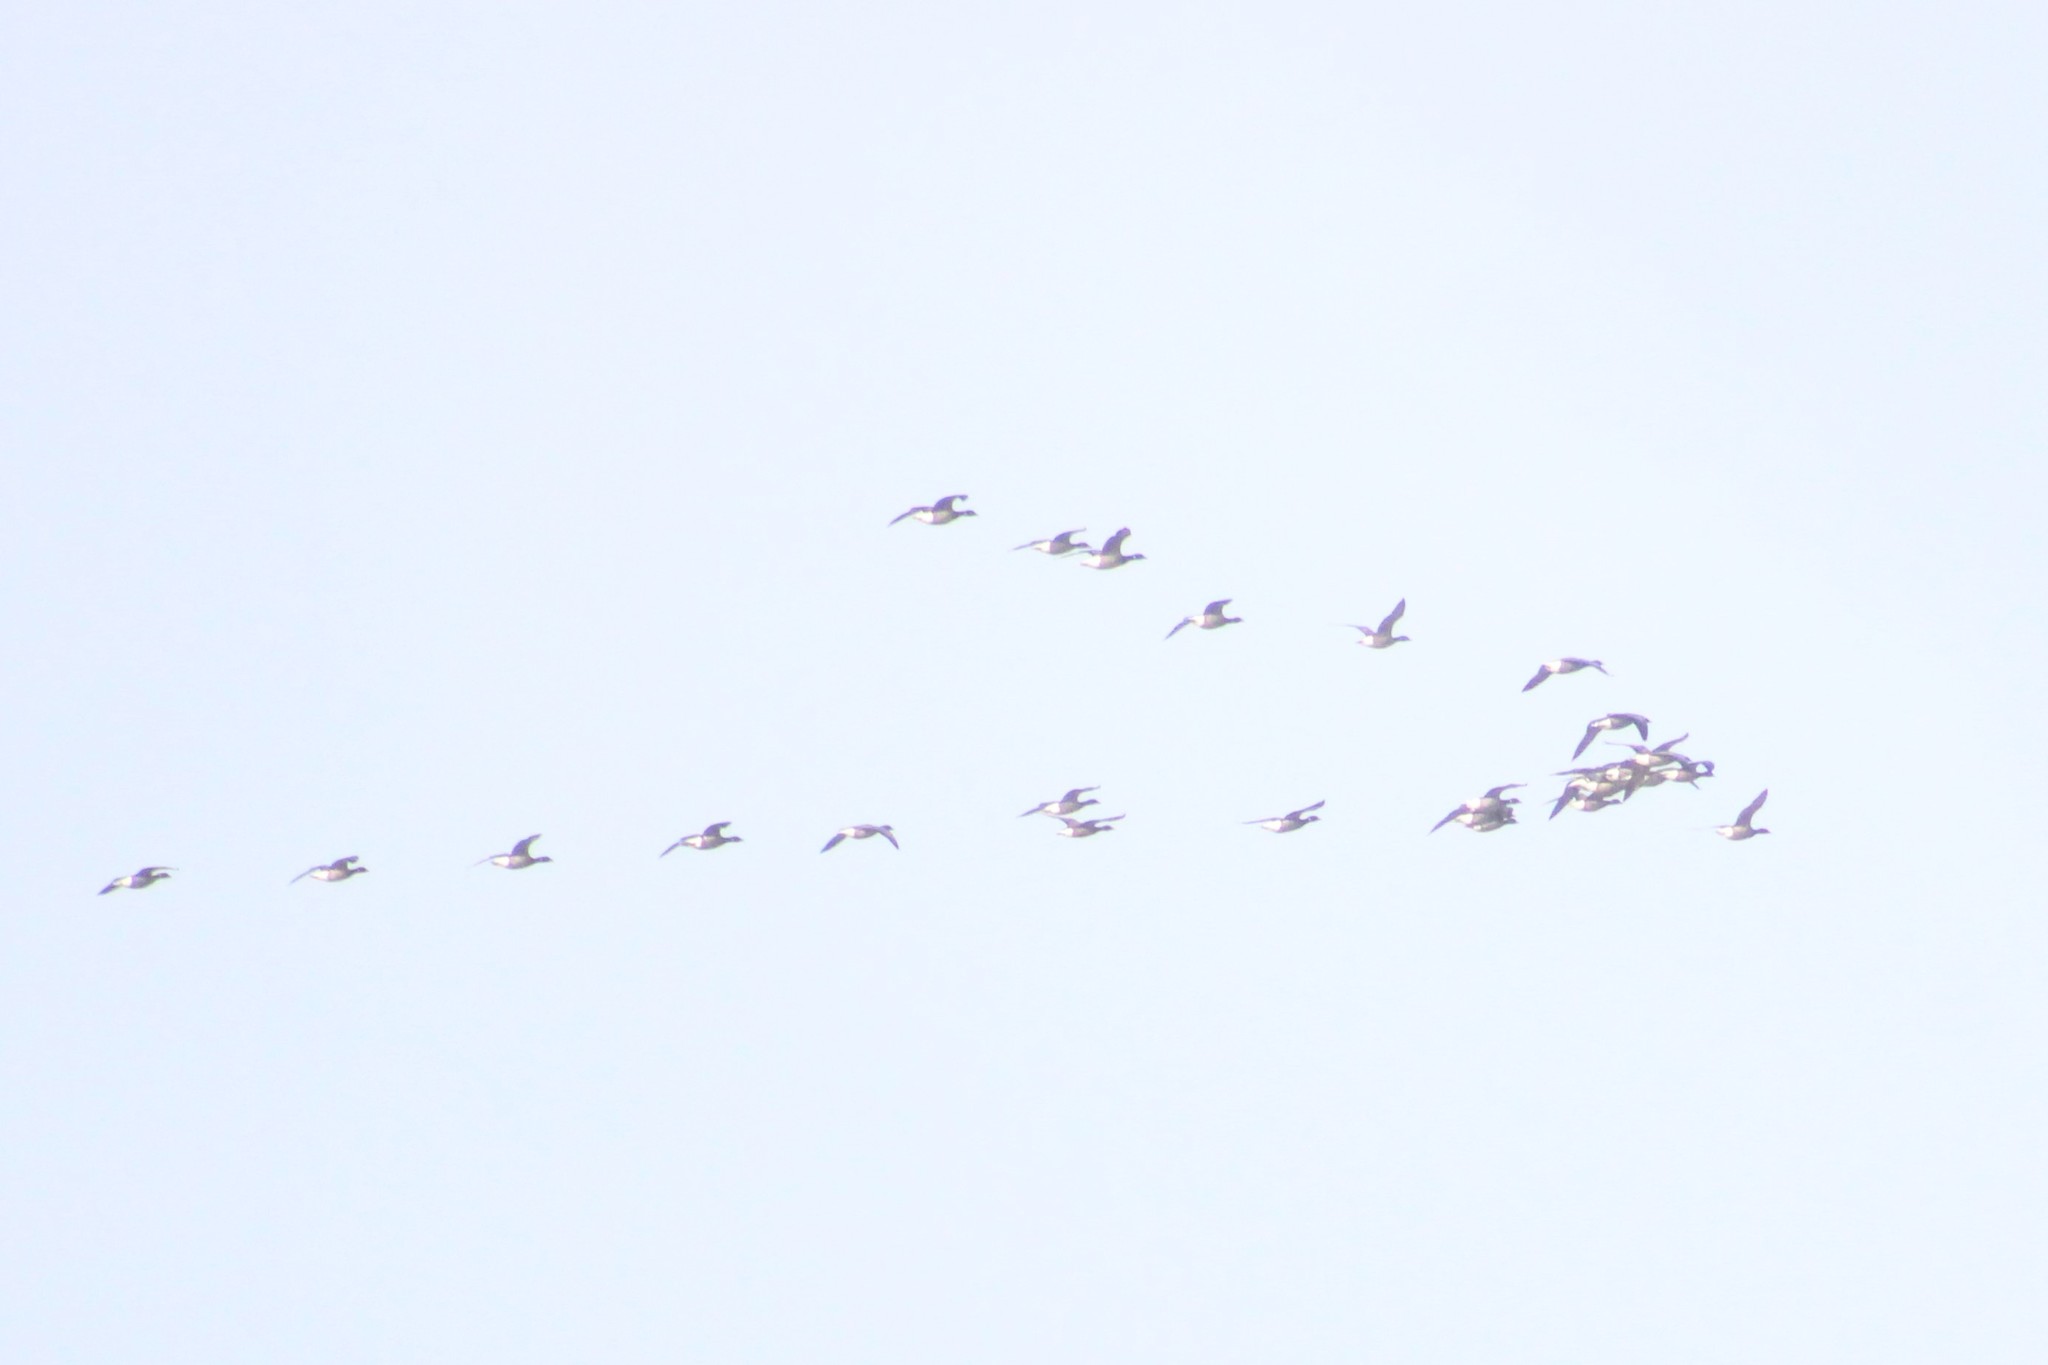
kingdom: Animalia
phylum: Chordata
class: Aves
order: Anseriformes
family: Anatidae
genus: Branta
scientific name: Branta bernicla
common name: Brant goose
